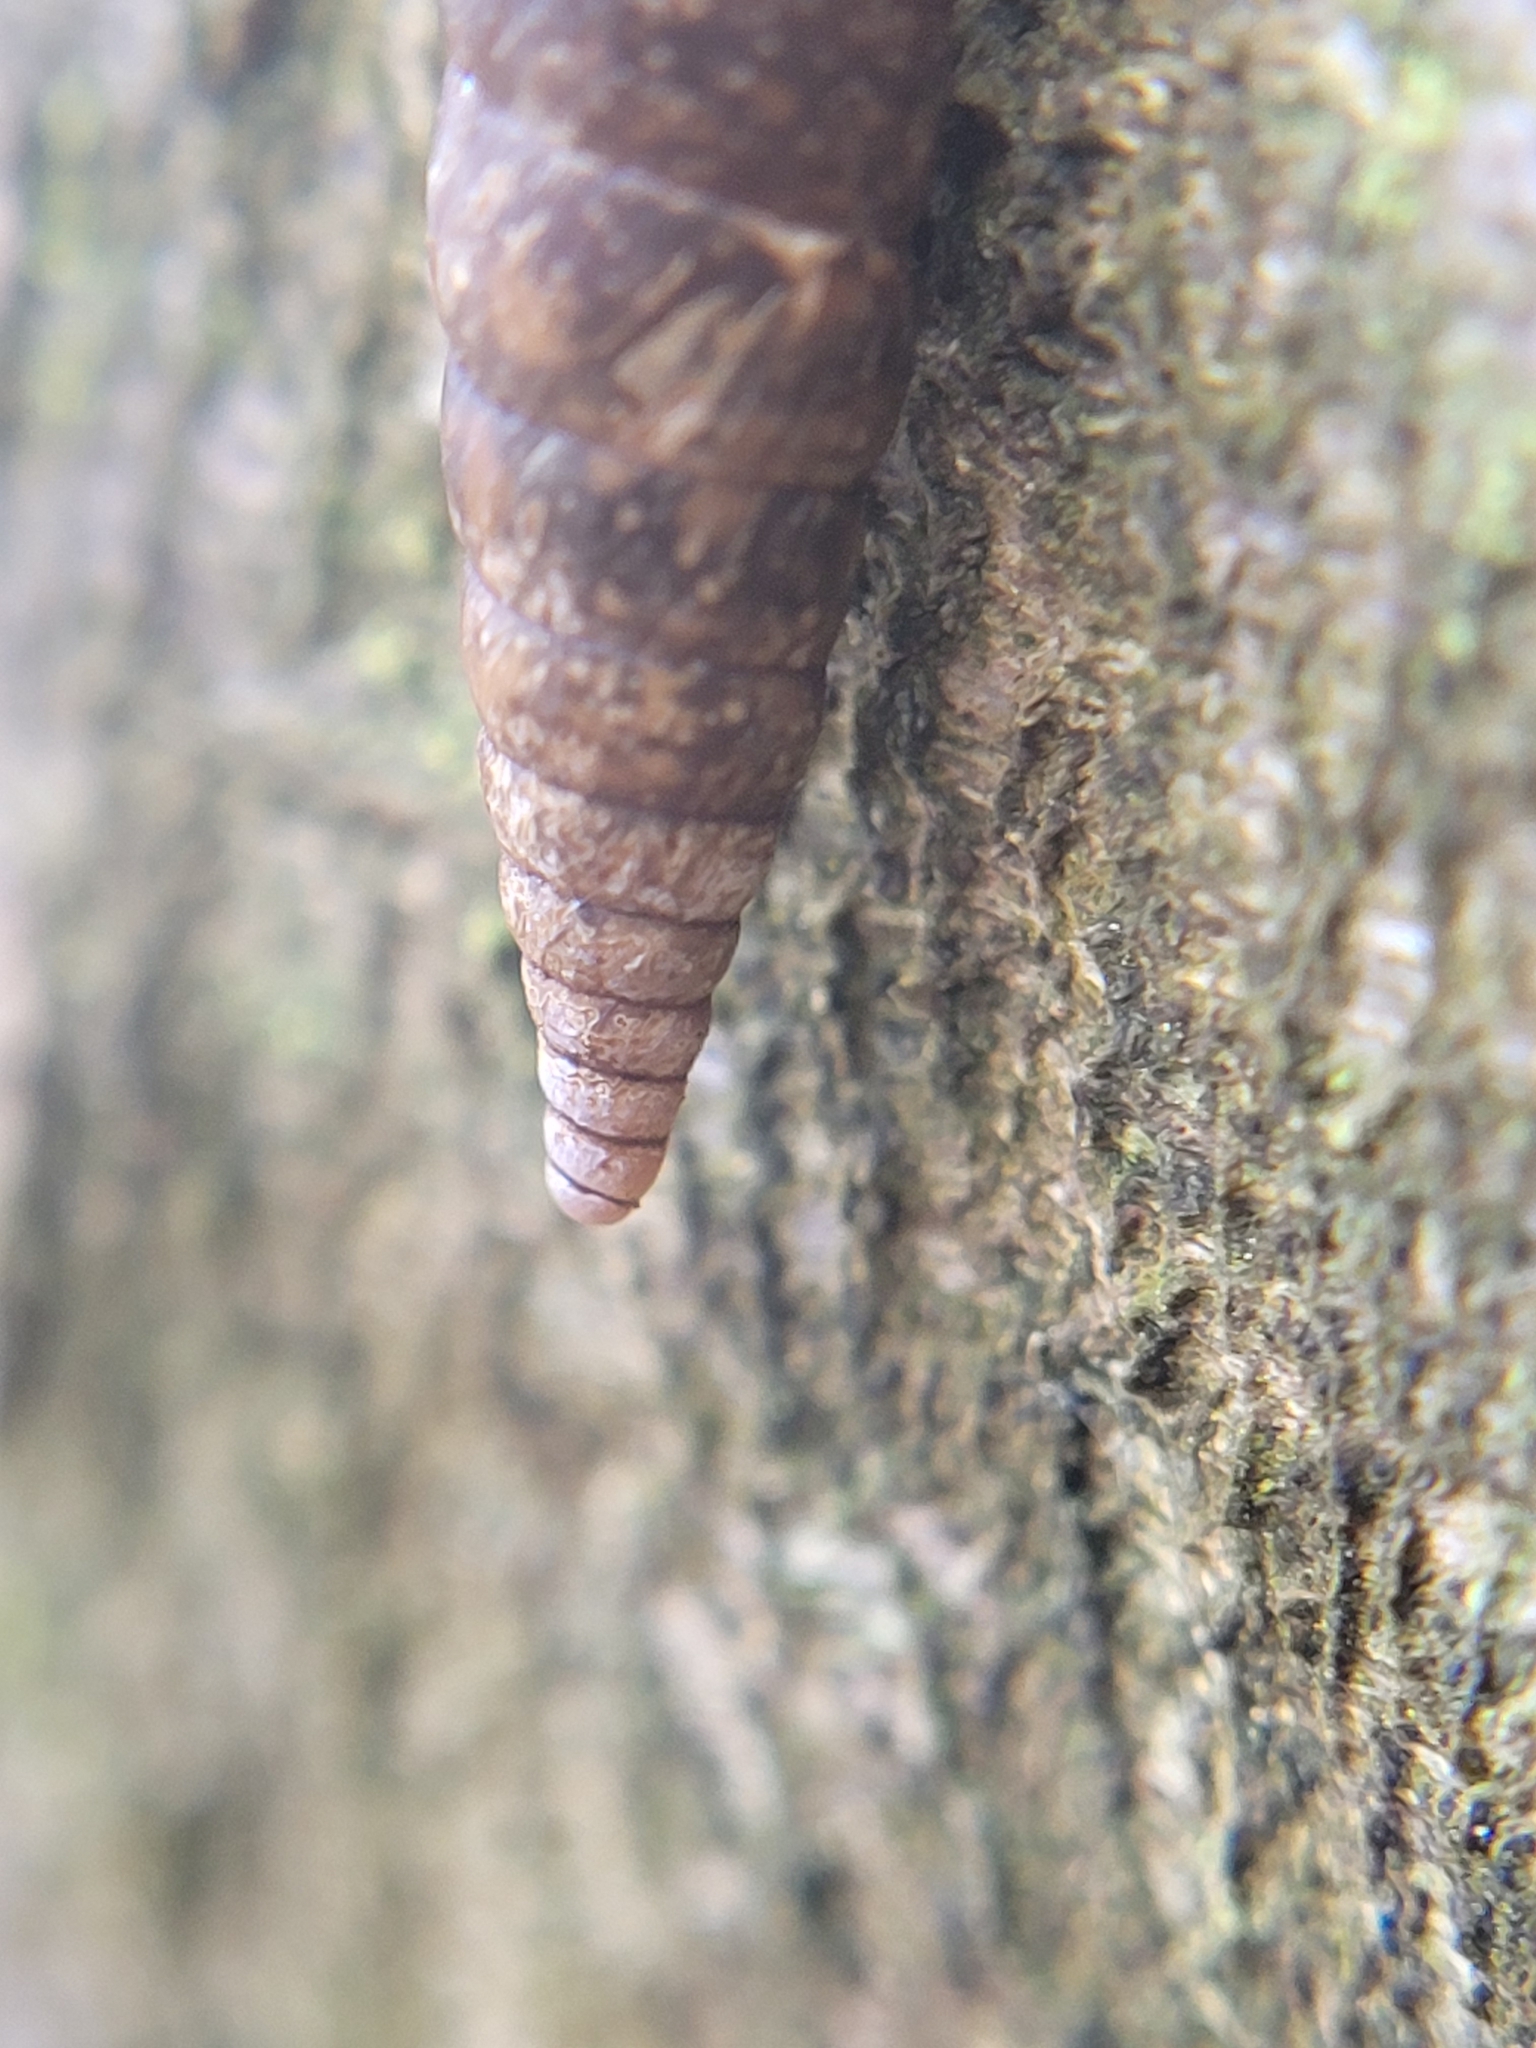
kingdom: Animalia
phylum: Mollusca
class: Gastropoda
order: Stylommatophora
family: Clausiliidae
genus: Cochlodina
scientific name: Cochlodina laminata
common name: Plaited door snail
